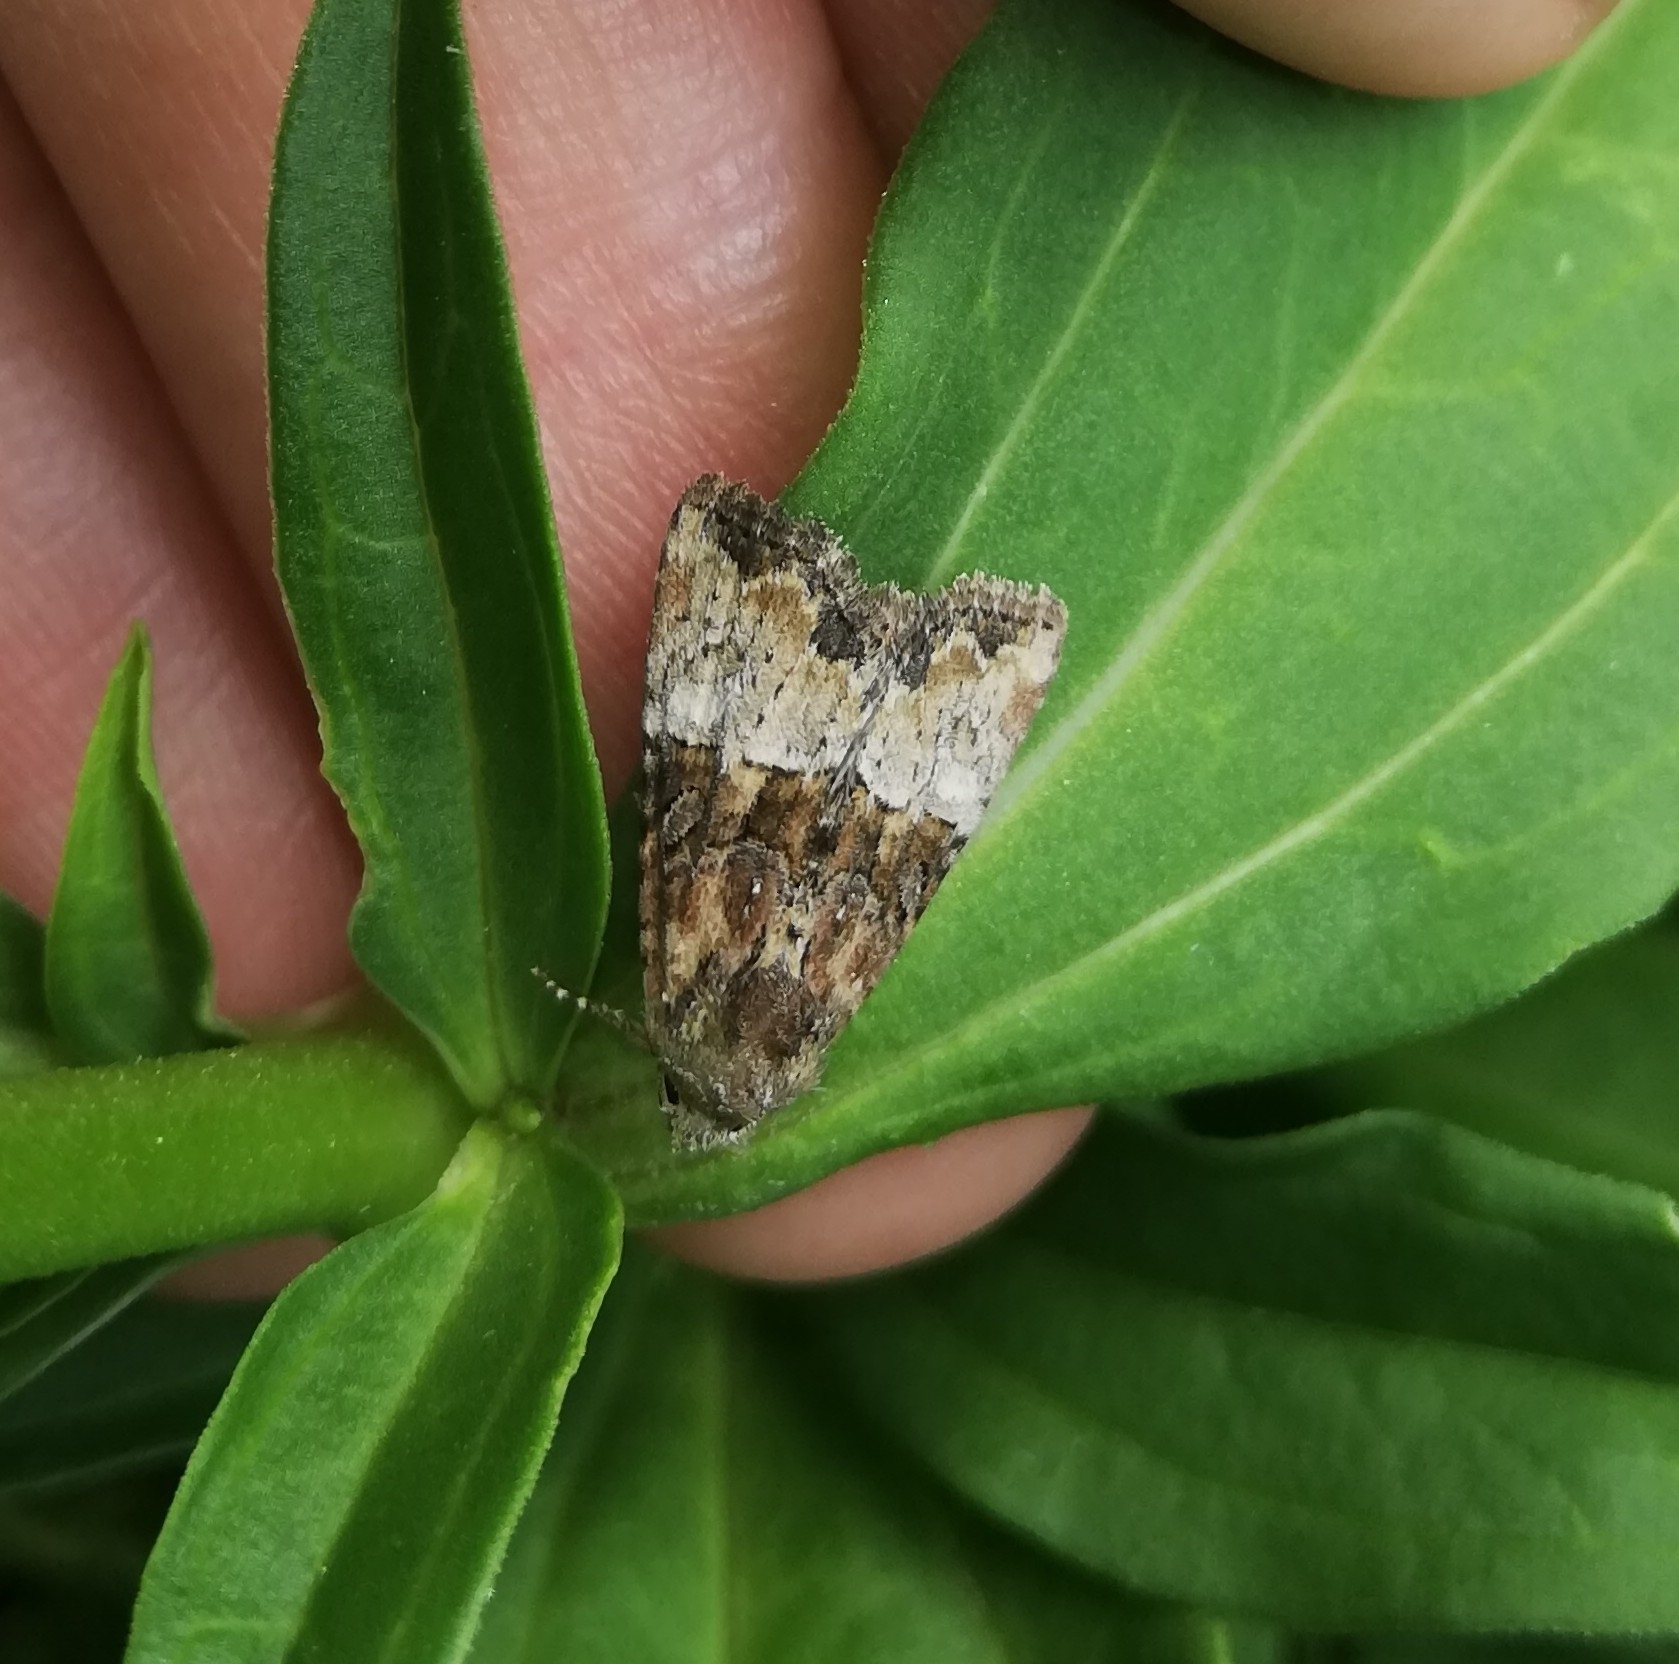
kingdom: Animalia
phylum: Arthropoda
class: Insecta
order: Lepidoptera
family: Noctuidae
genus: Mesoligia
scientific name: Mesoligia furuncula
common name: Cloaked minor
